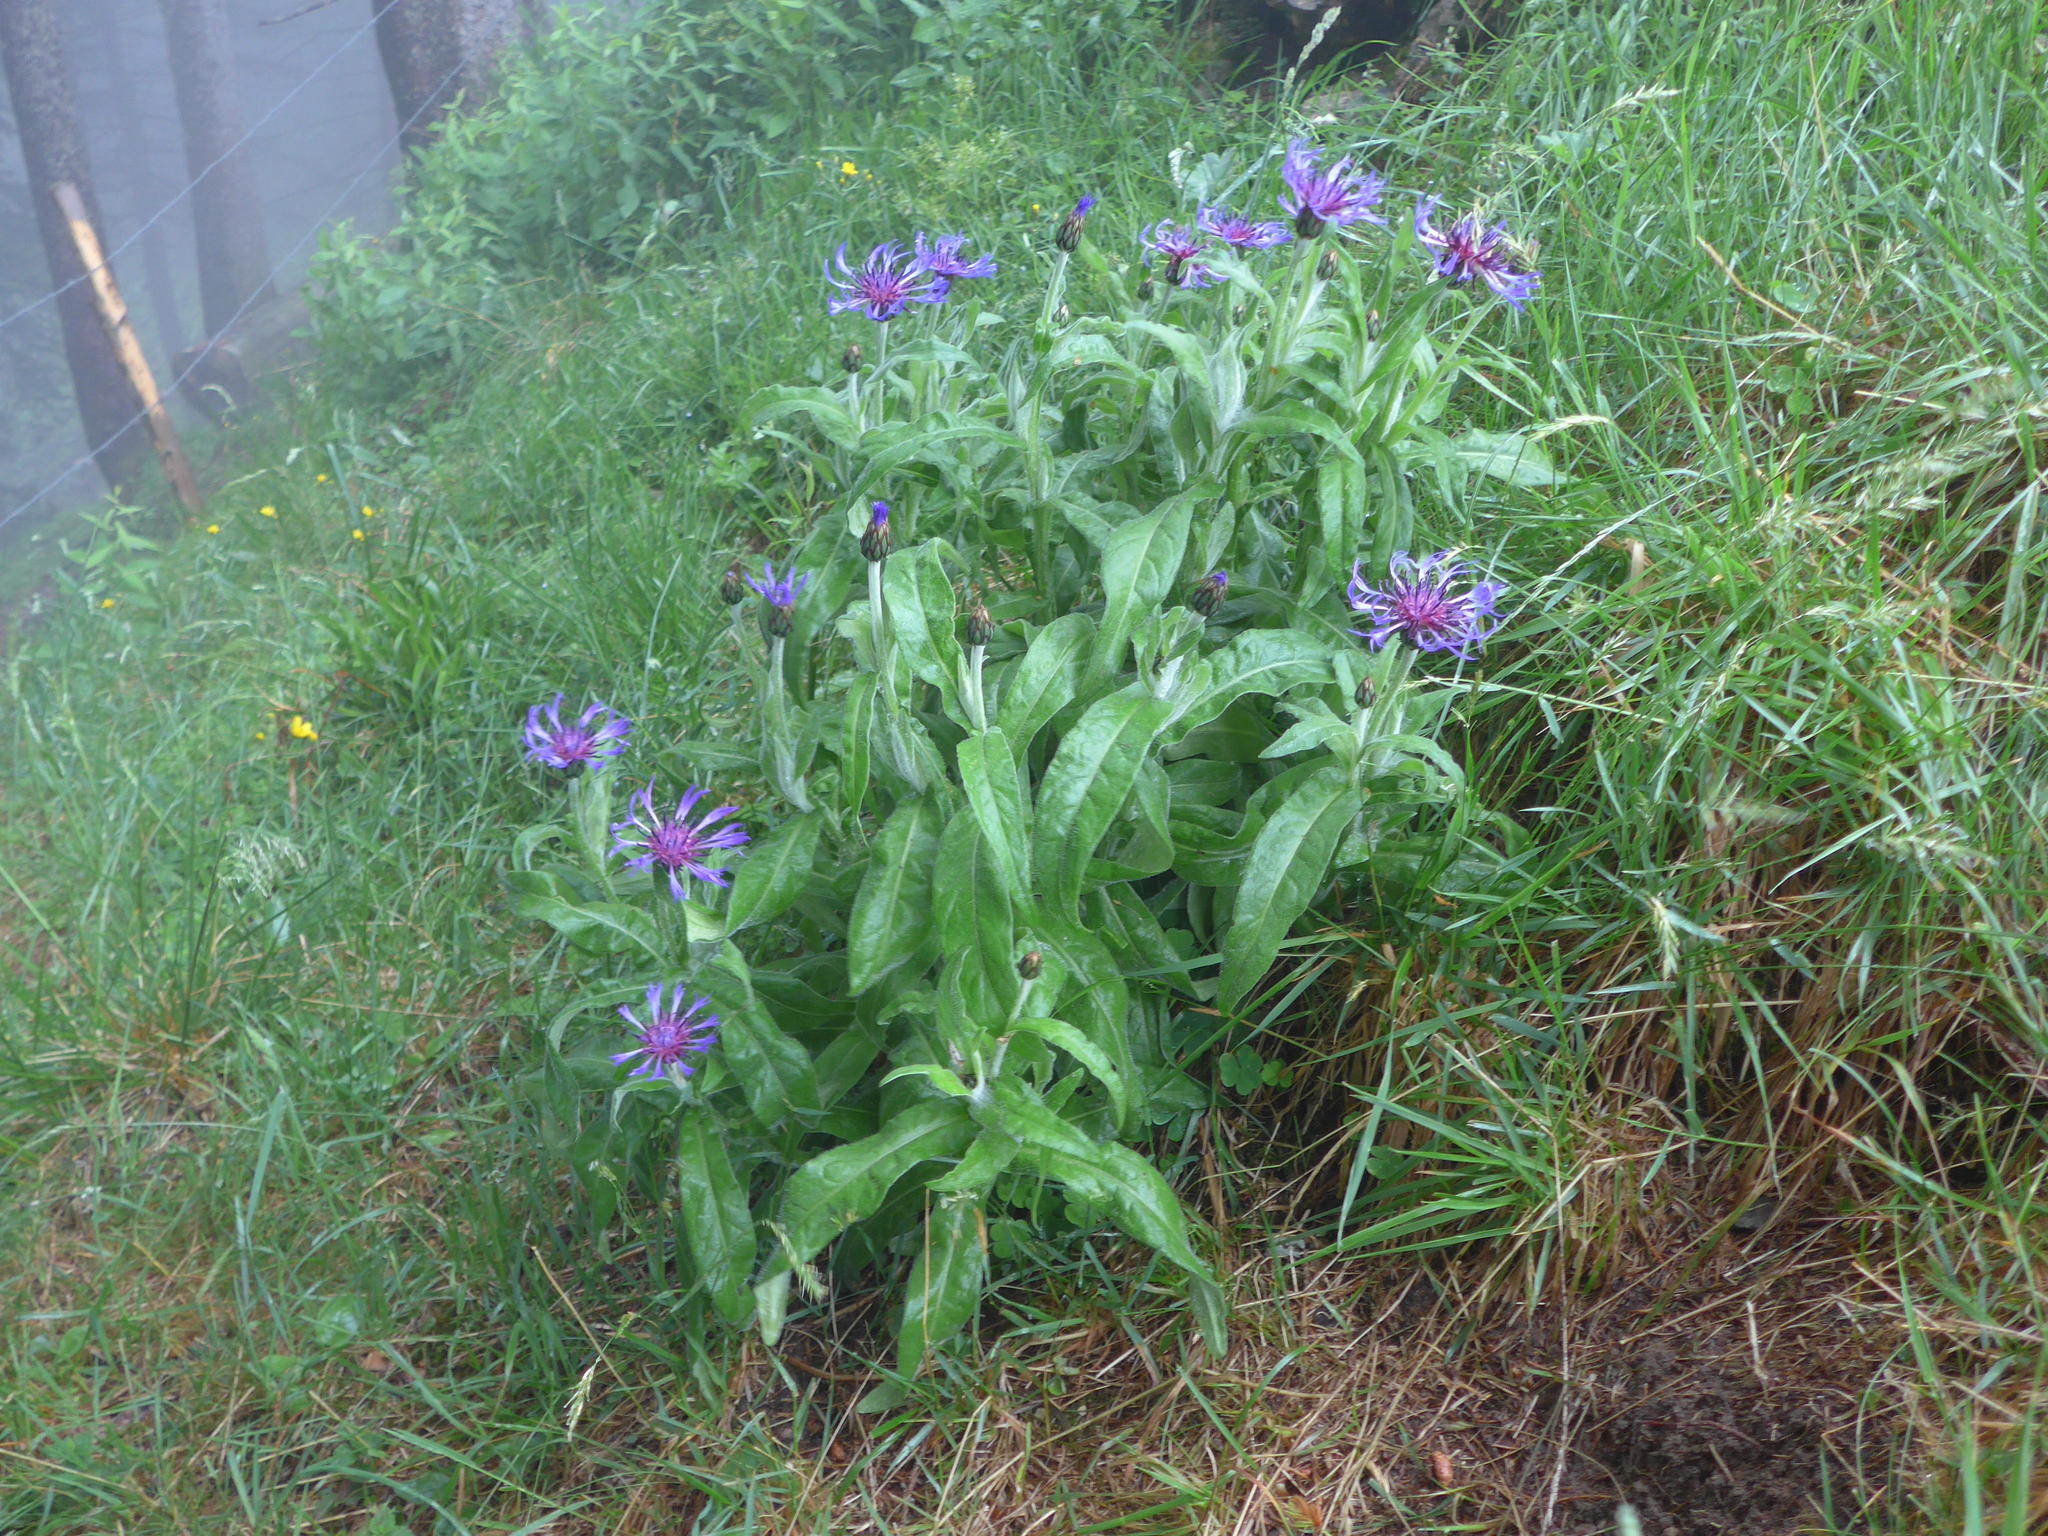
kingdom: Plantae
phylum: Tracheophyta
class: Magnoliopsida
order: Asterales
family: Asteraceae
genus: Centaurea
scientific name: Centaurea montana
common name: Perennial cornflower
